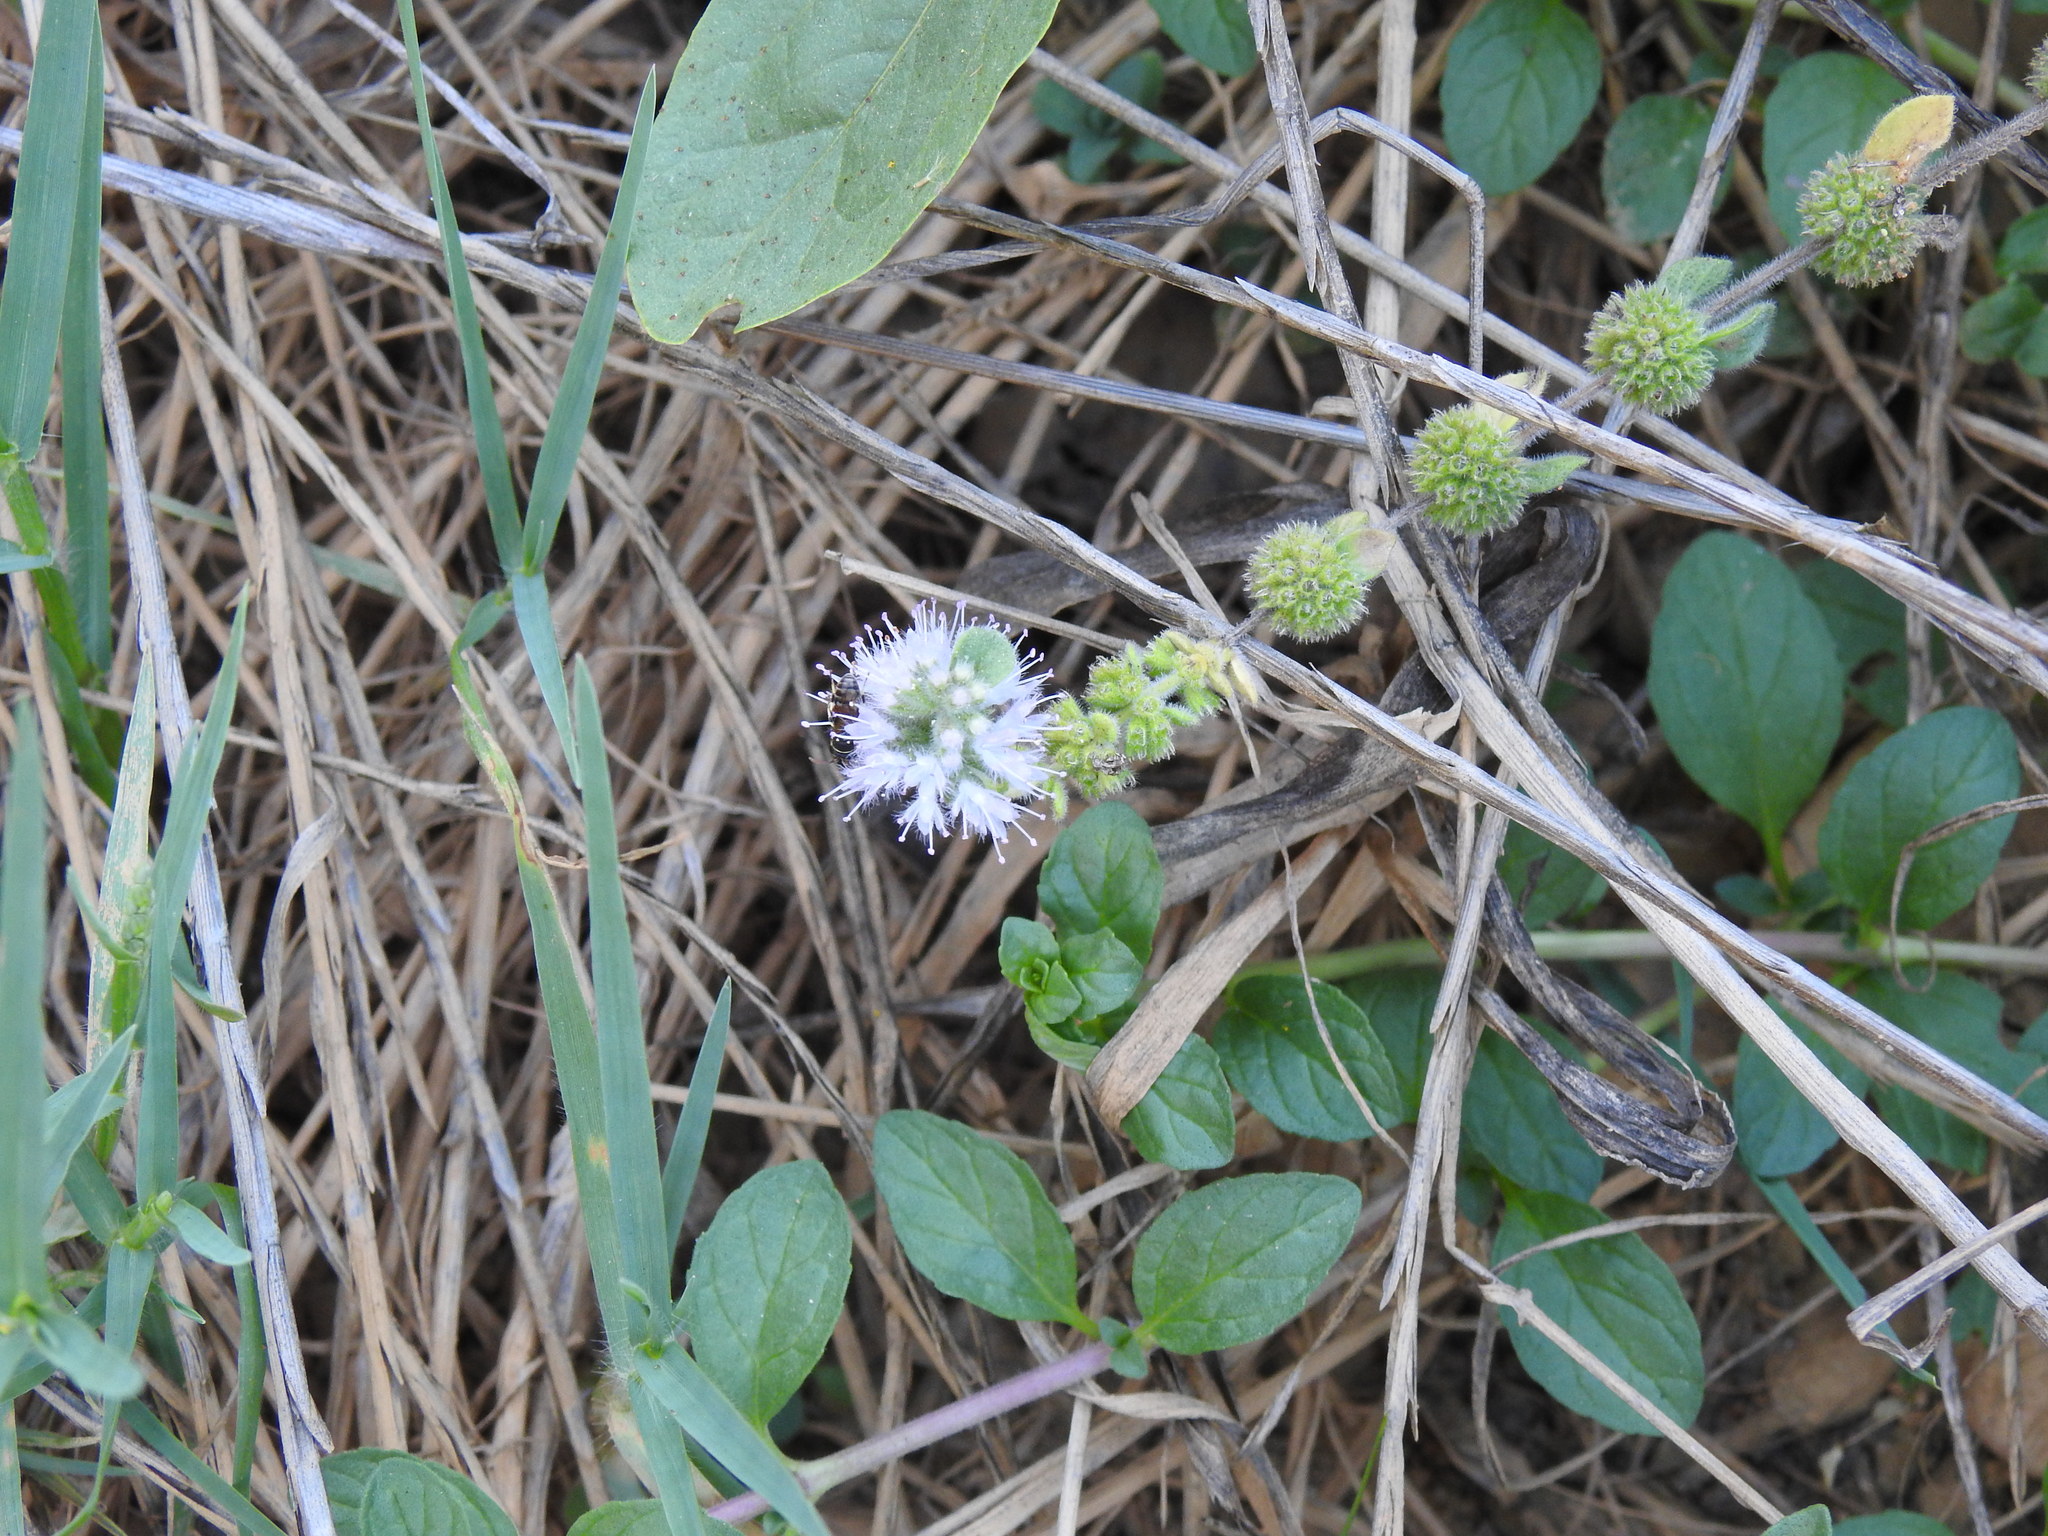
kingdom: Plantae
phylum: Tracheophyta
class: Magnoliopsida
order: Lamiales
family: Lamiaceae
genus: Mentha
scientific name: Mentha pulegium
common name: Pennyroyal
